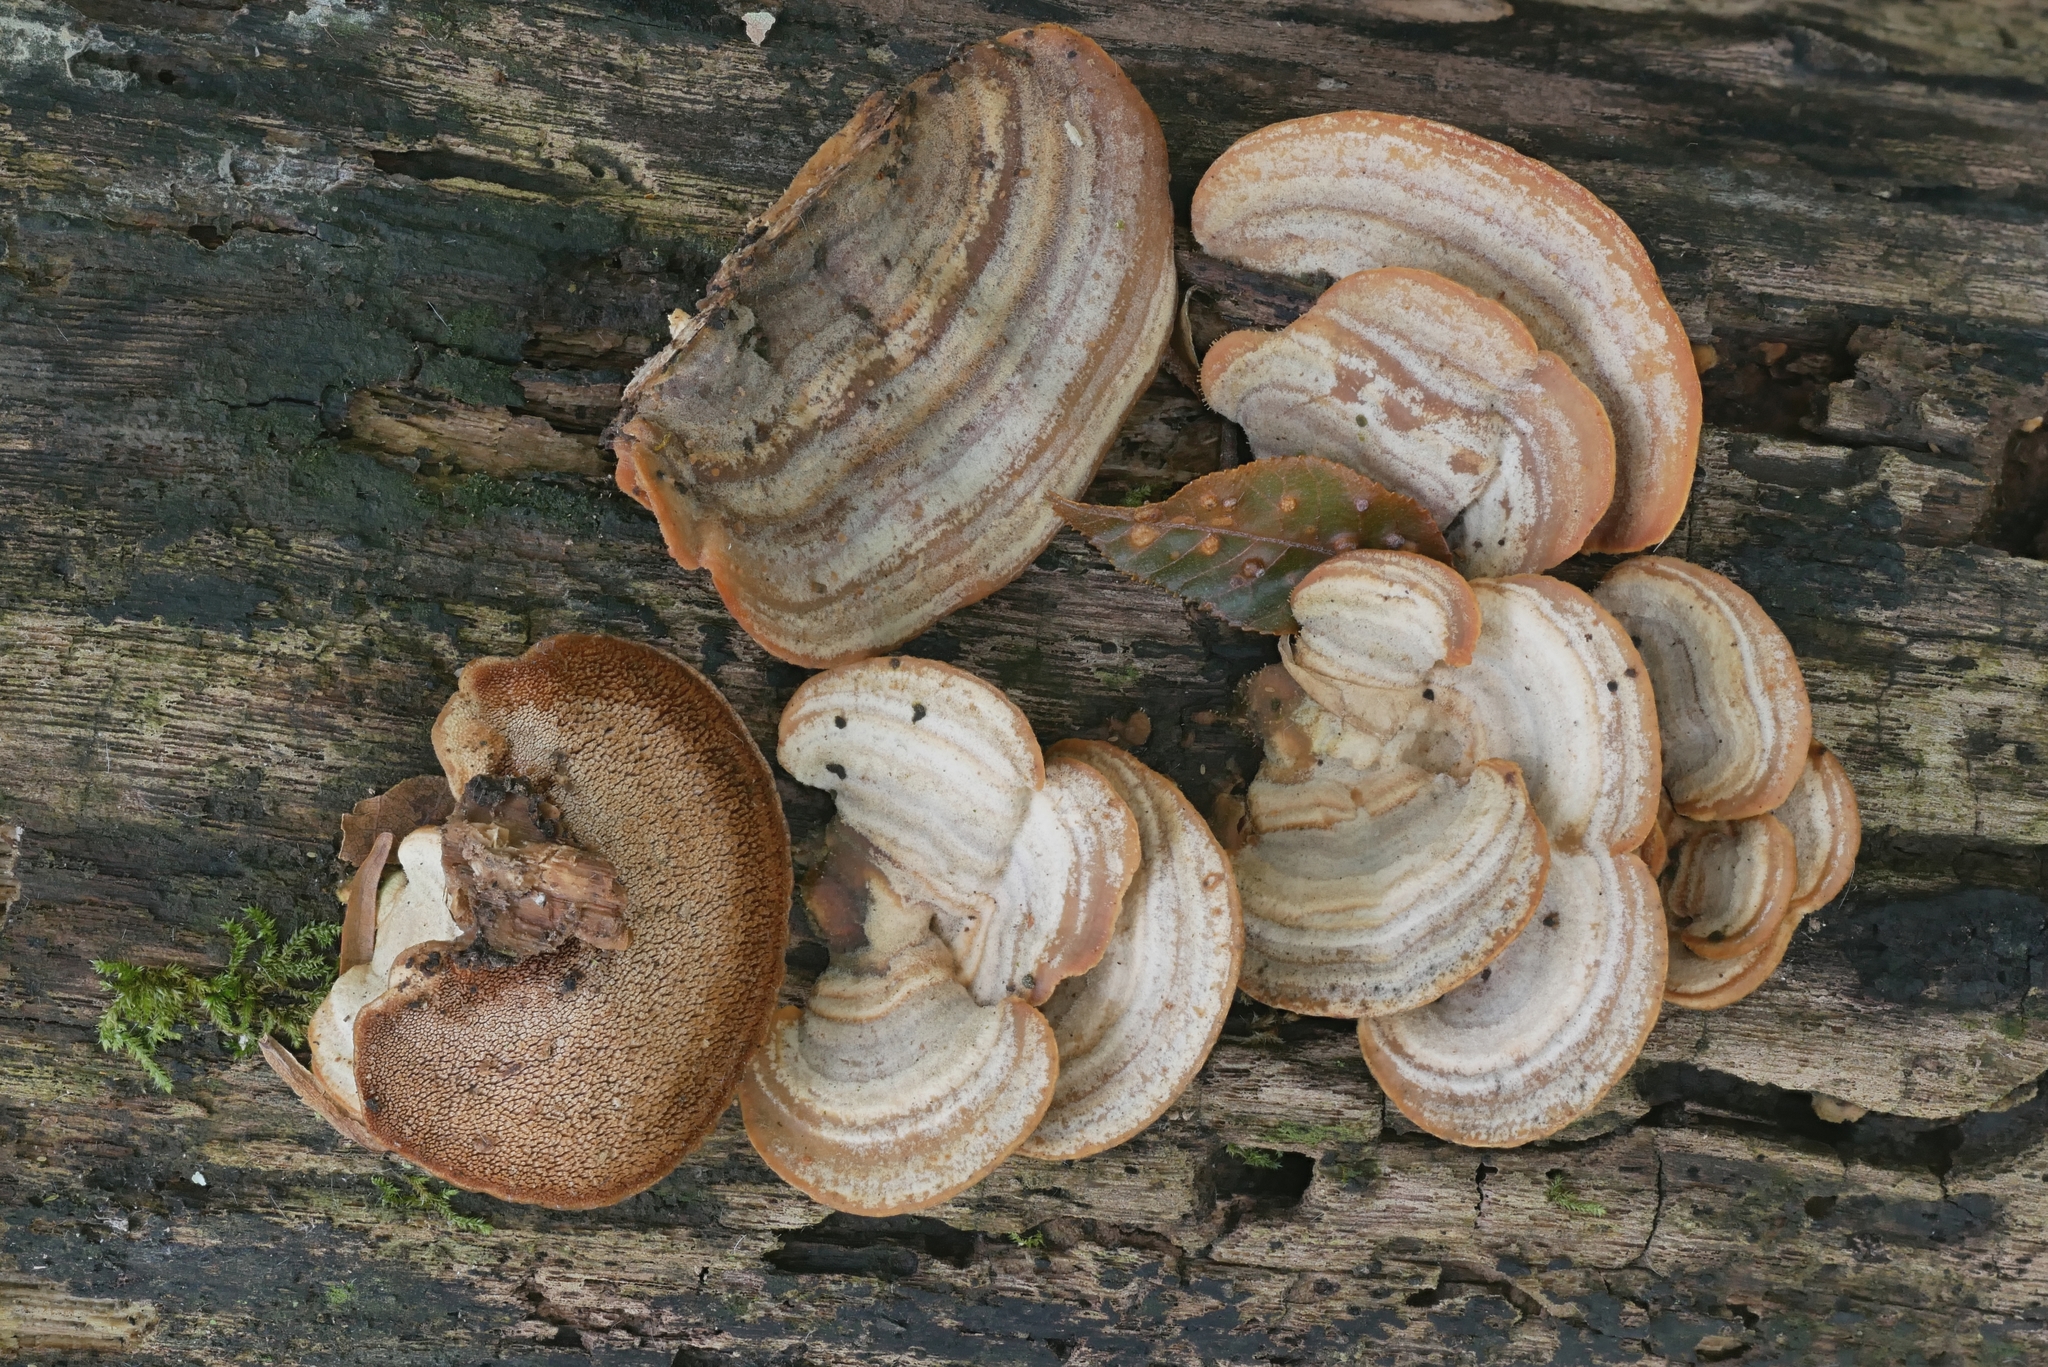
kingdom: Fungi
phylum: Basidiomycota
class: Agaricomycetes
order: Polyporales
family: Steccherinaceae
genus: Metuloidea
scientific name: Metuloidea reniformis
